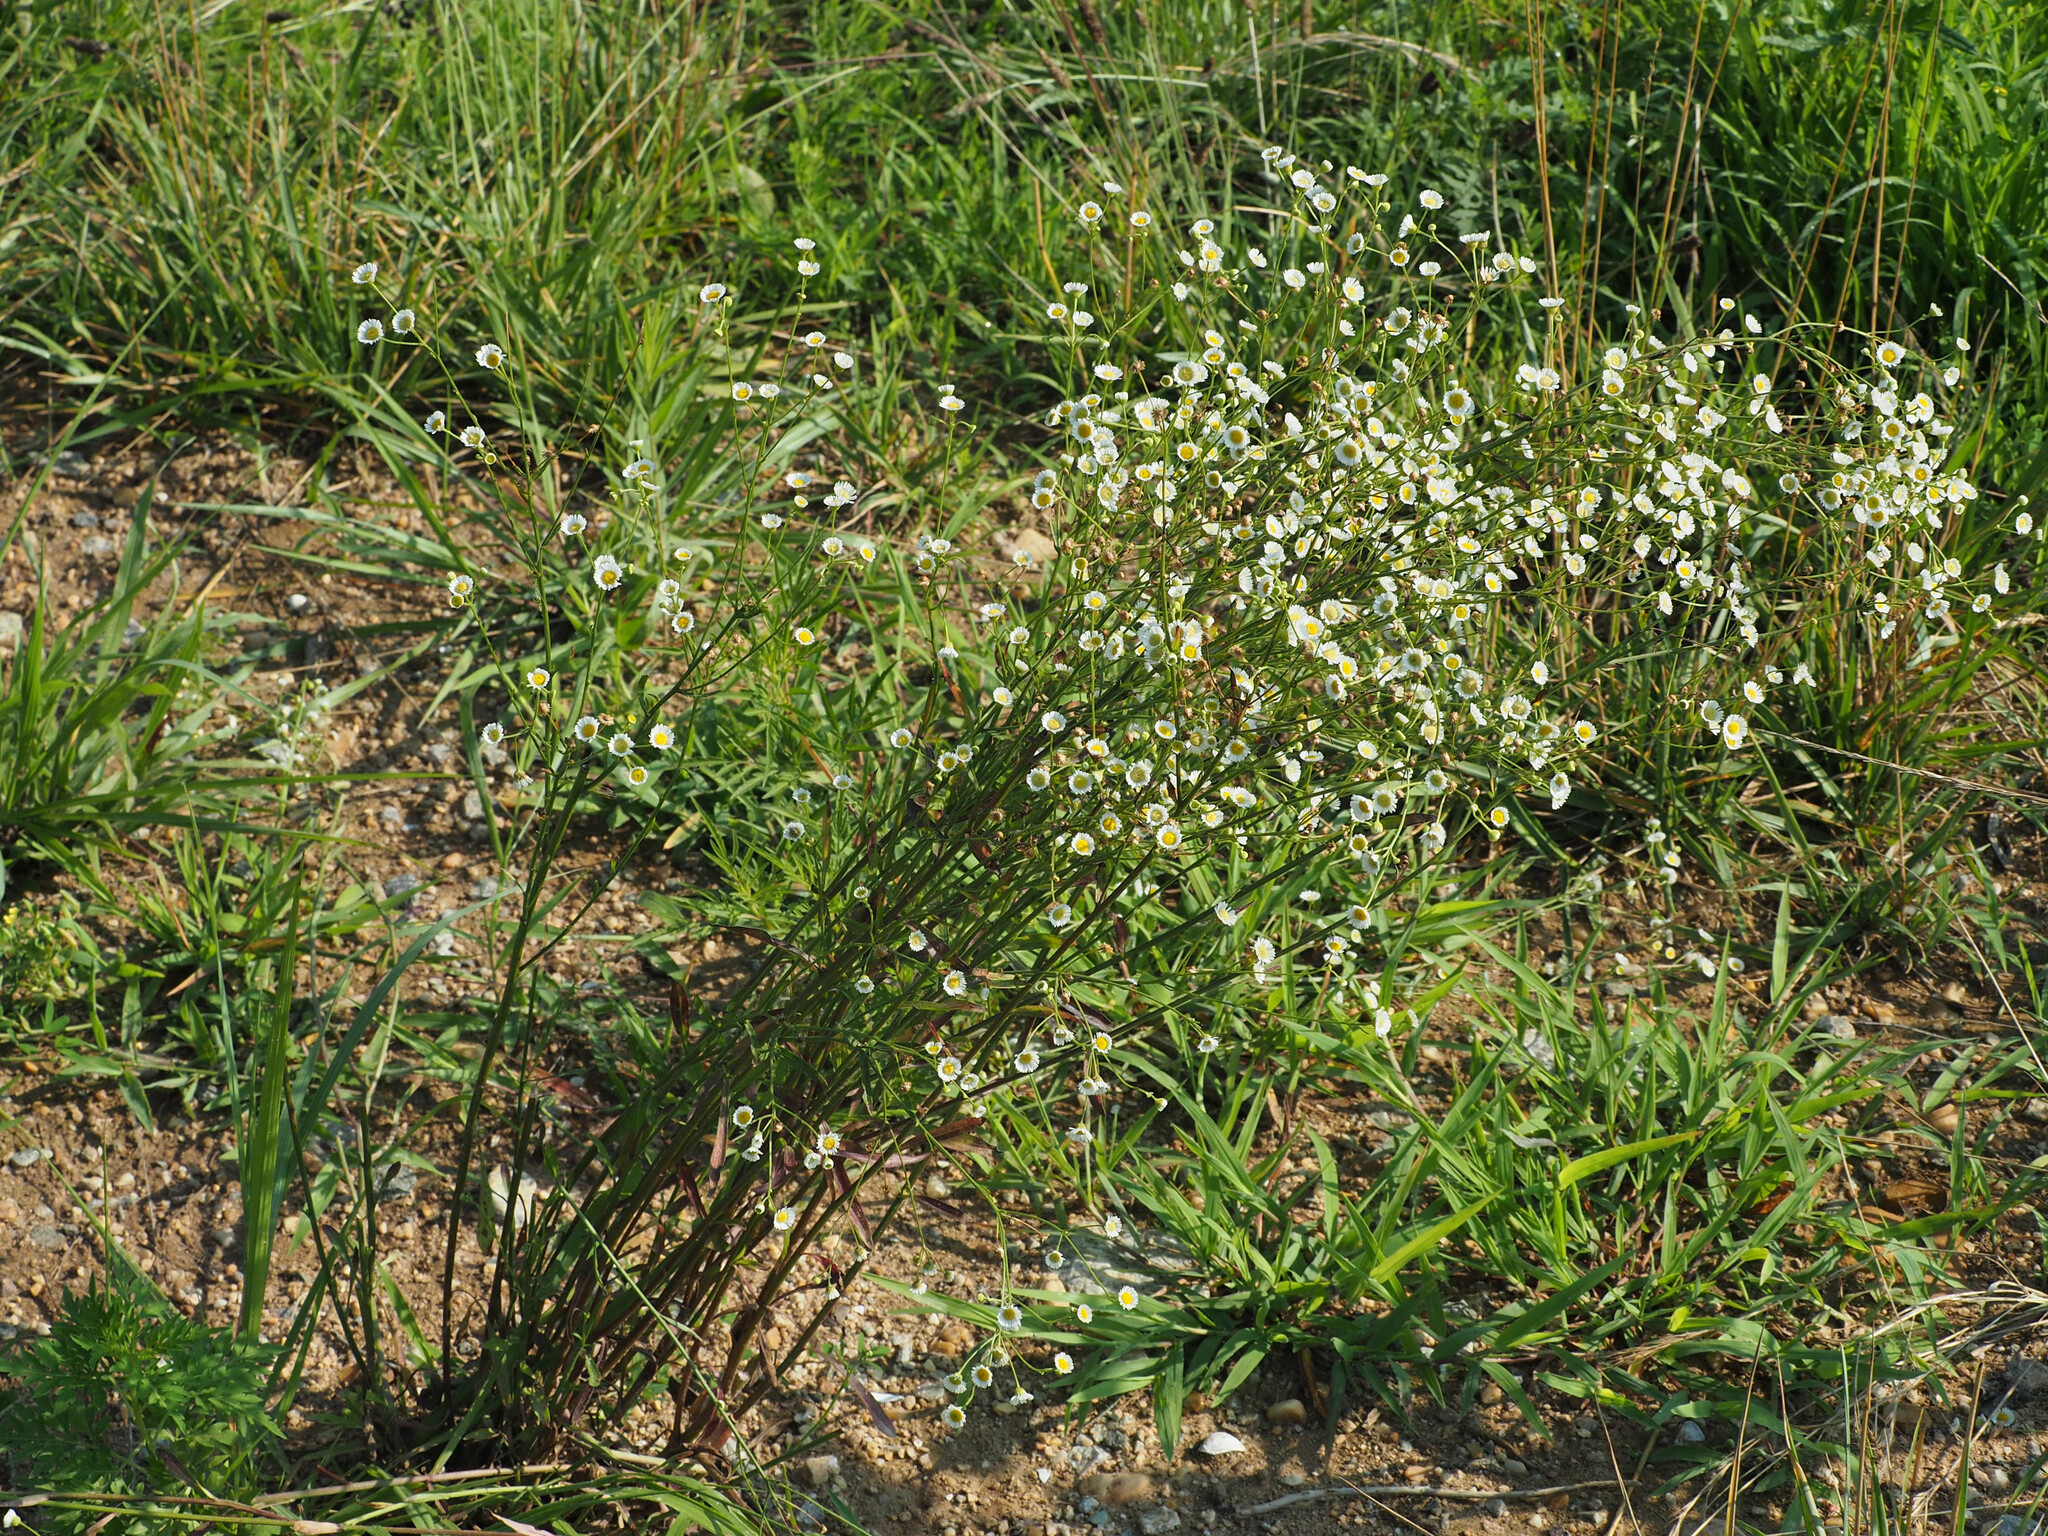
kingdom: Plantae
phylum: Tracheophyta
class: Magnoliopsida
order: Asterales
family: Asteraceae
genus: Erigeron
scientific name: Erigeron strigosus
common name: Common eastern fleabane
